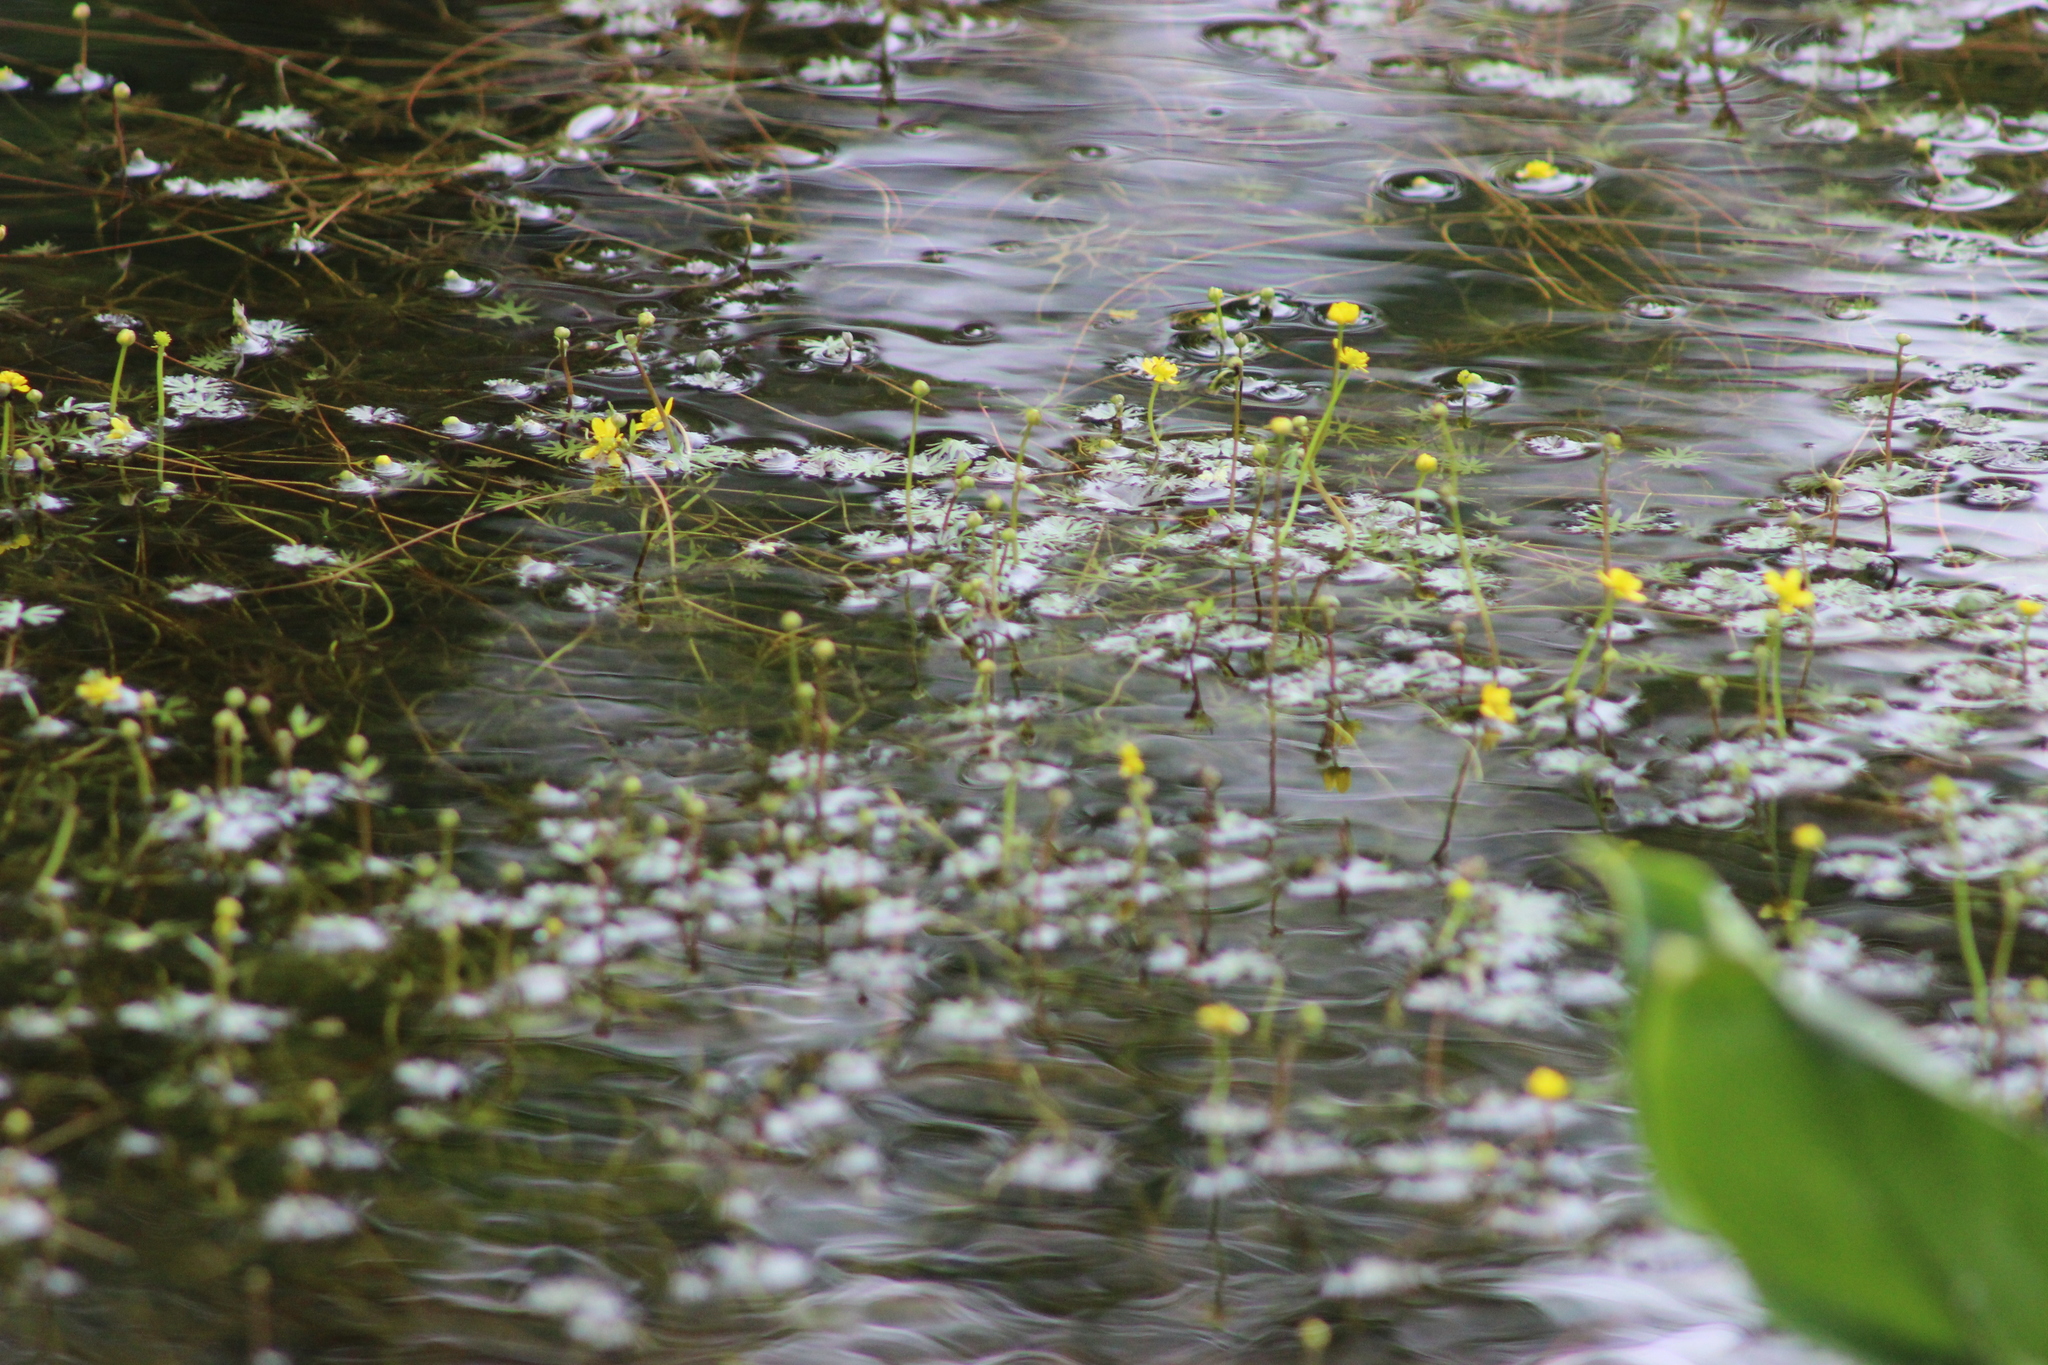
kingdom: Plantae
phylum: Tracheophyta
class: Magnoliopsida
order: Ranunculales
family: Ranunculaceae
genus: Ranunculus
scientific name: Ranunculus gmelinii
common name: Gmelin's buttercup
